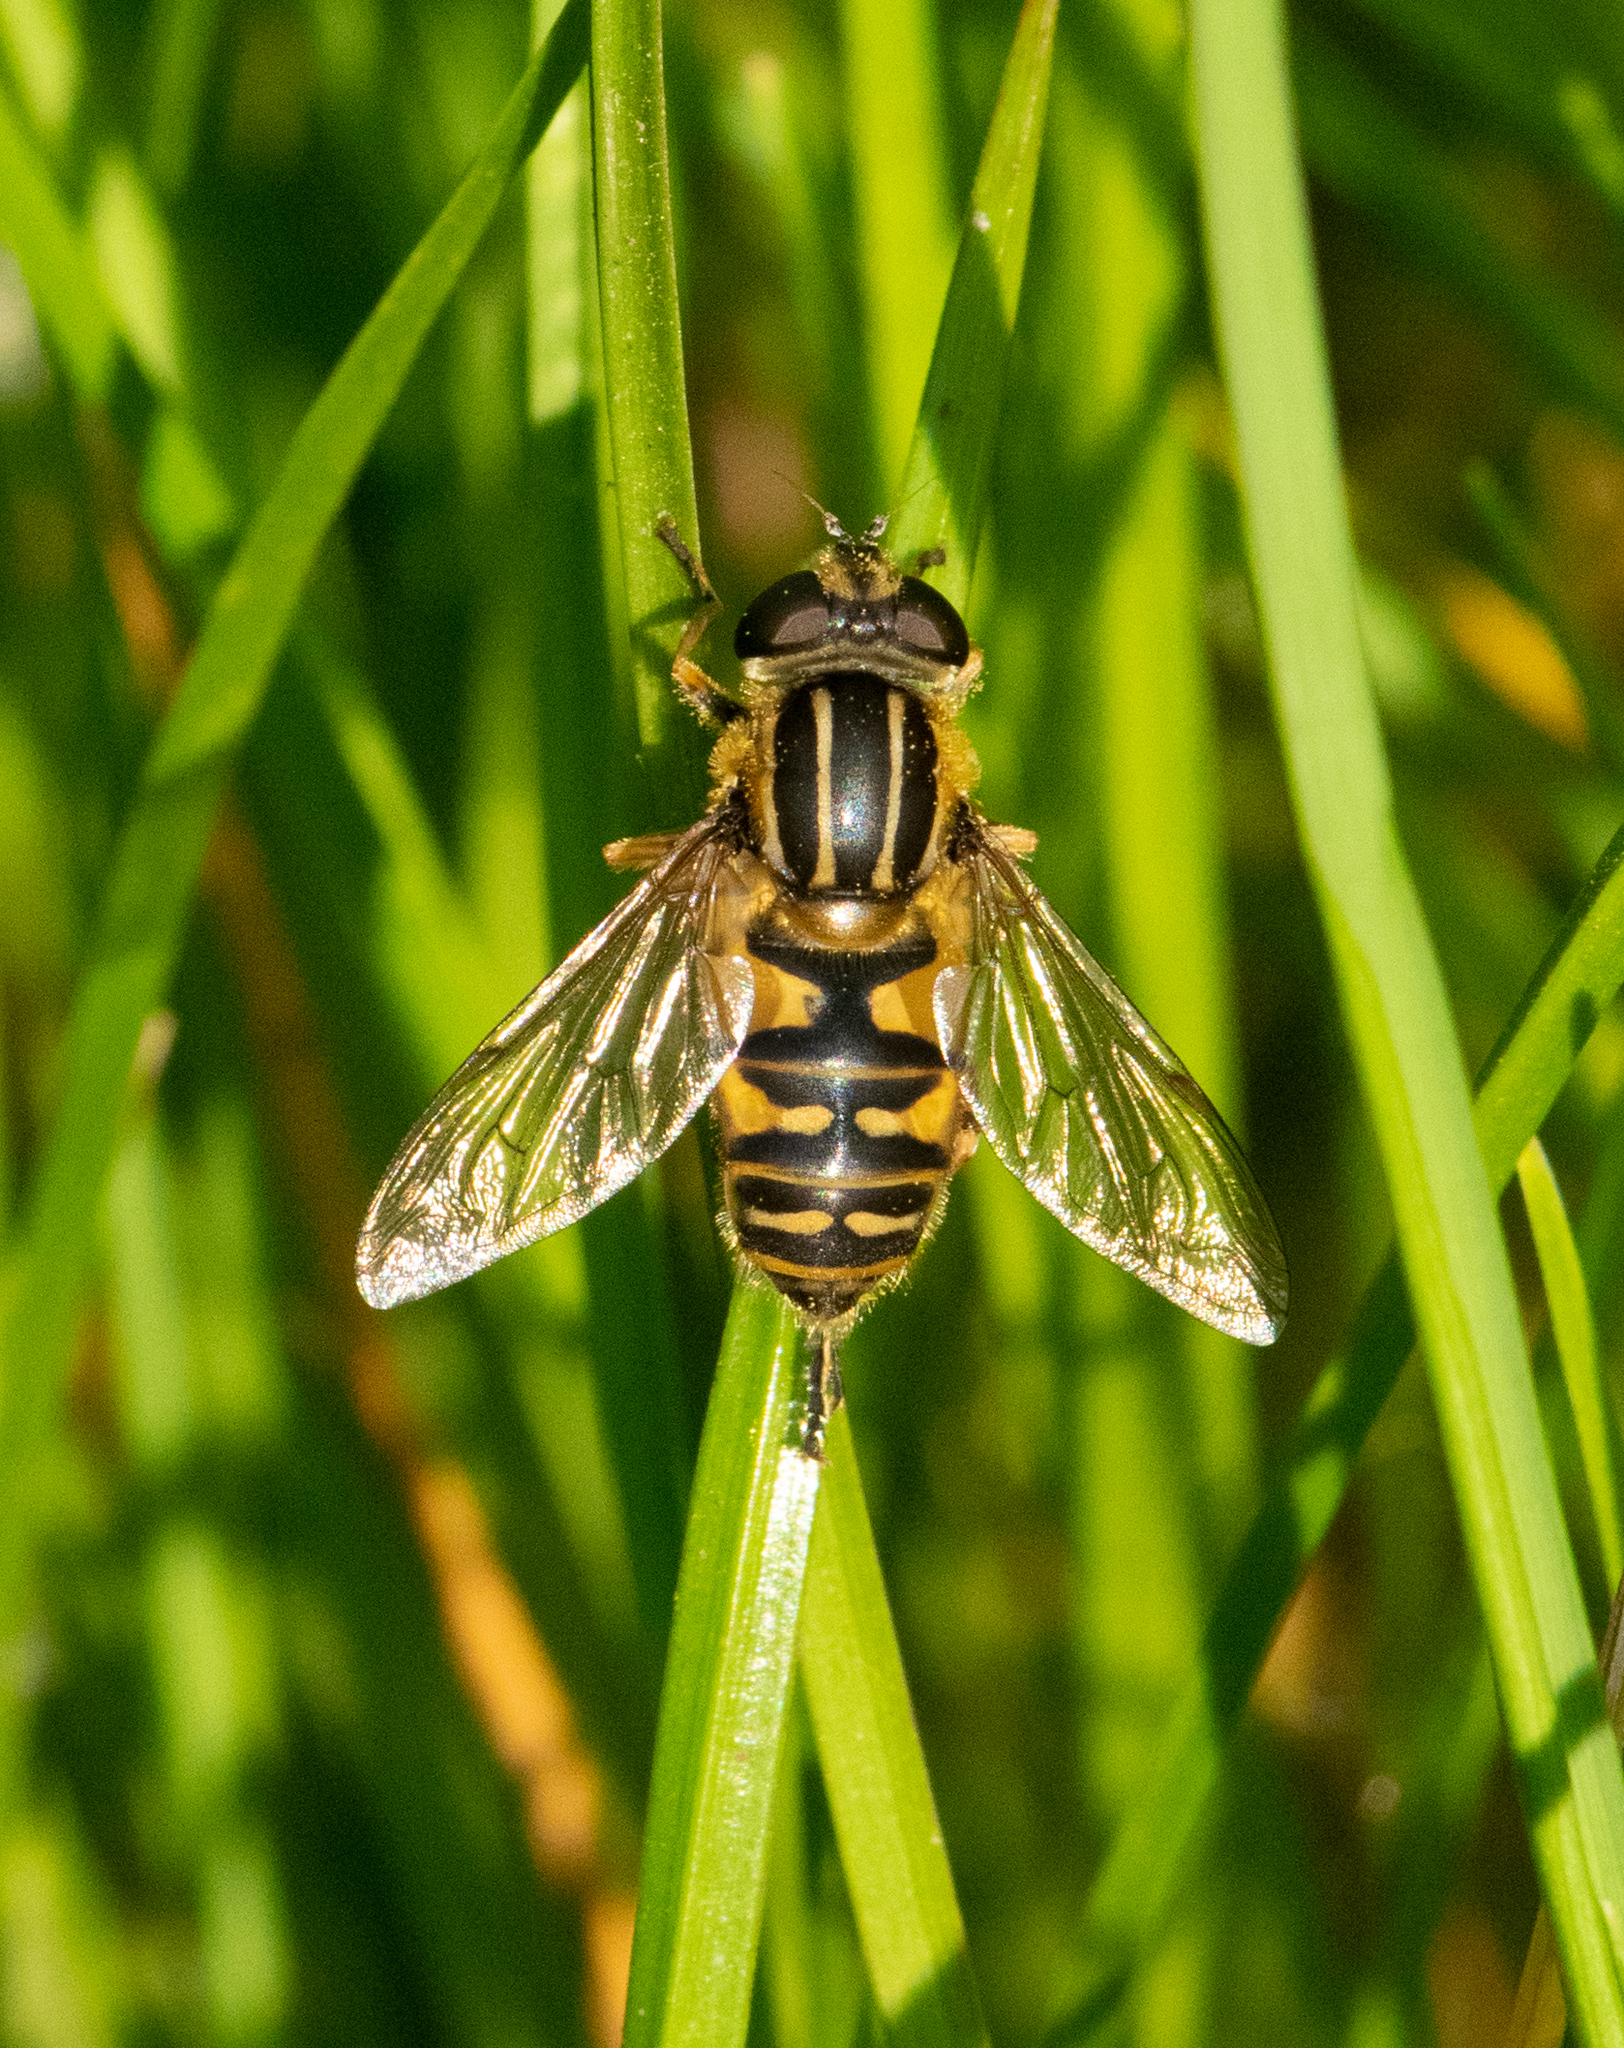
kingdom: Animalia
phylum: Arthropoda
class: Insecta
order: Diptera
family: Syrphidae
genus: Helophilus
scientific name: Helophilus pendulus
